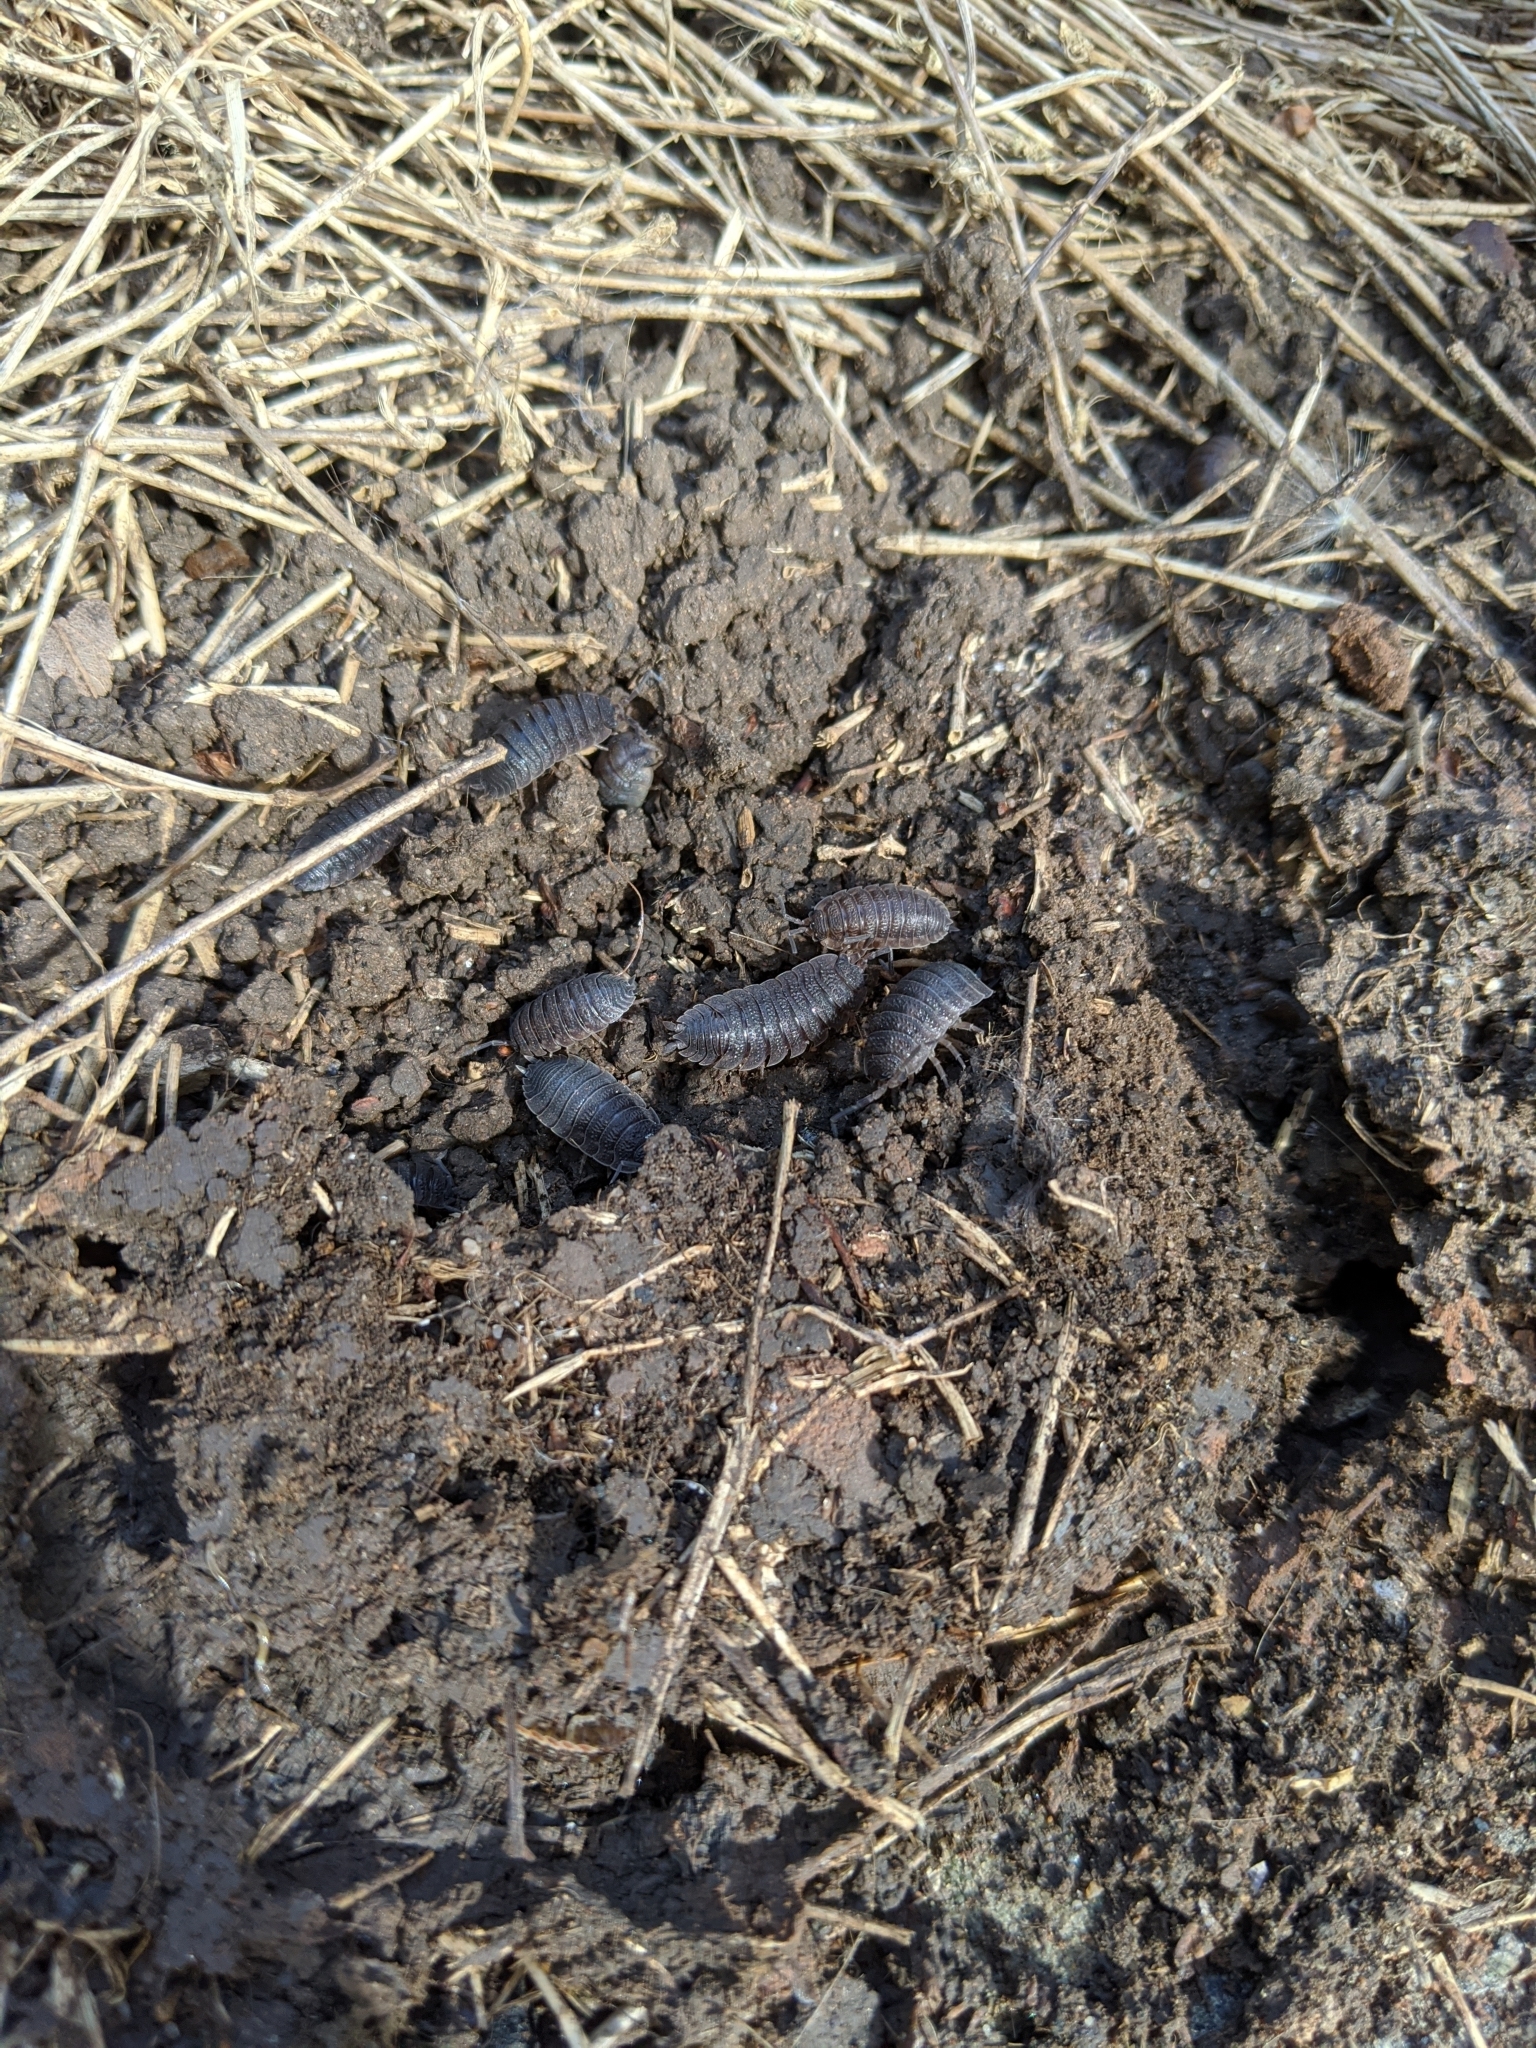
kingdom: Animalia
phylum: Arthropoda
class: Malacostraca
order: Isopoda
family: Porcellionidae
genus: Porcellio
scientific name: Porcellio scaber
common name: Common rough woodlouse
